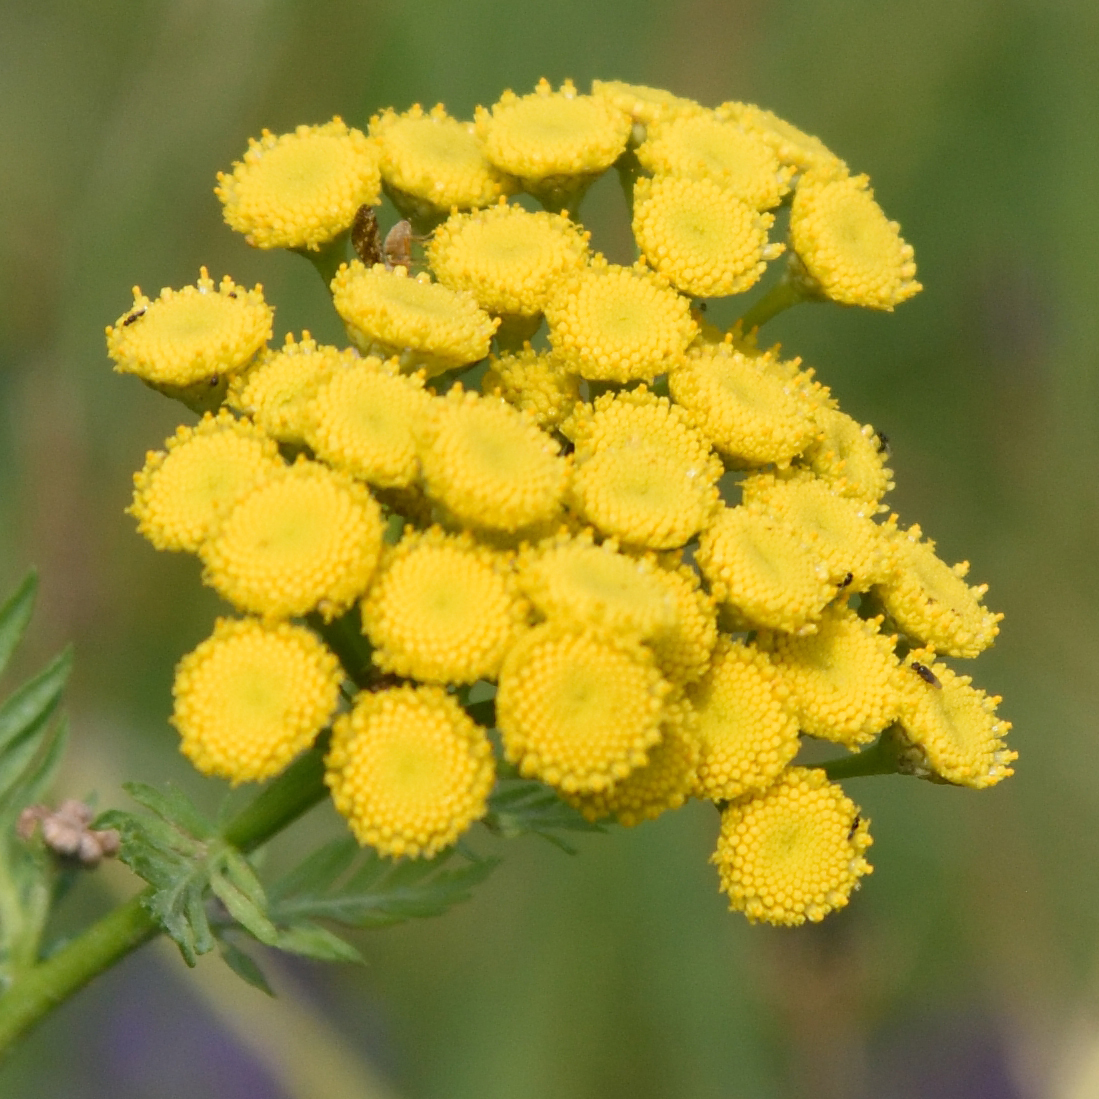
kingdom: Plantae
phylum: Tracheophyta
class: Magnoliopsida
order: Asterales
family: Asteraceae
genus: Tanacetum
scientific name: Tanacetum vulgare
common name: Common tansy
